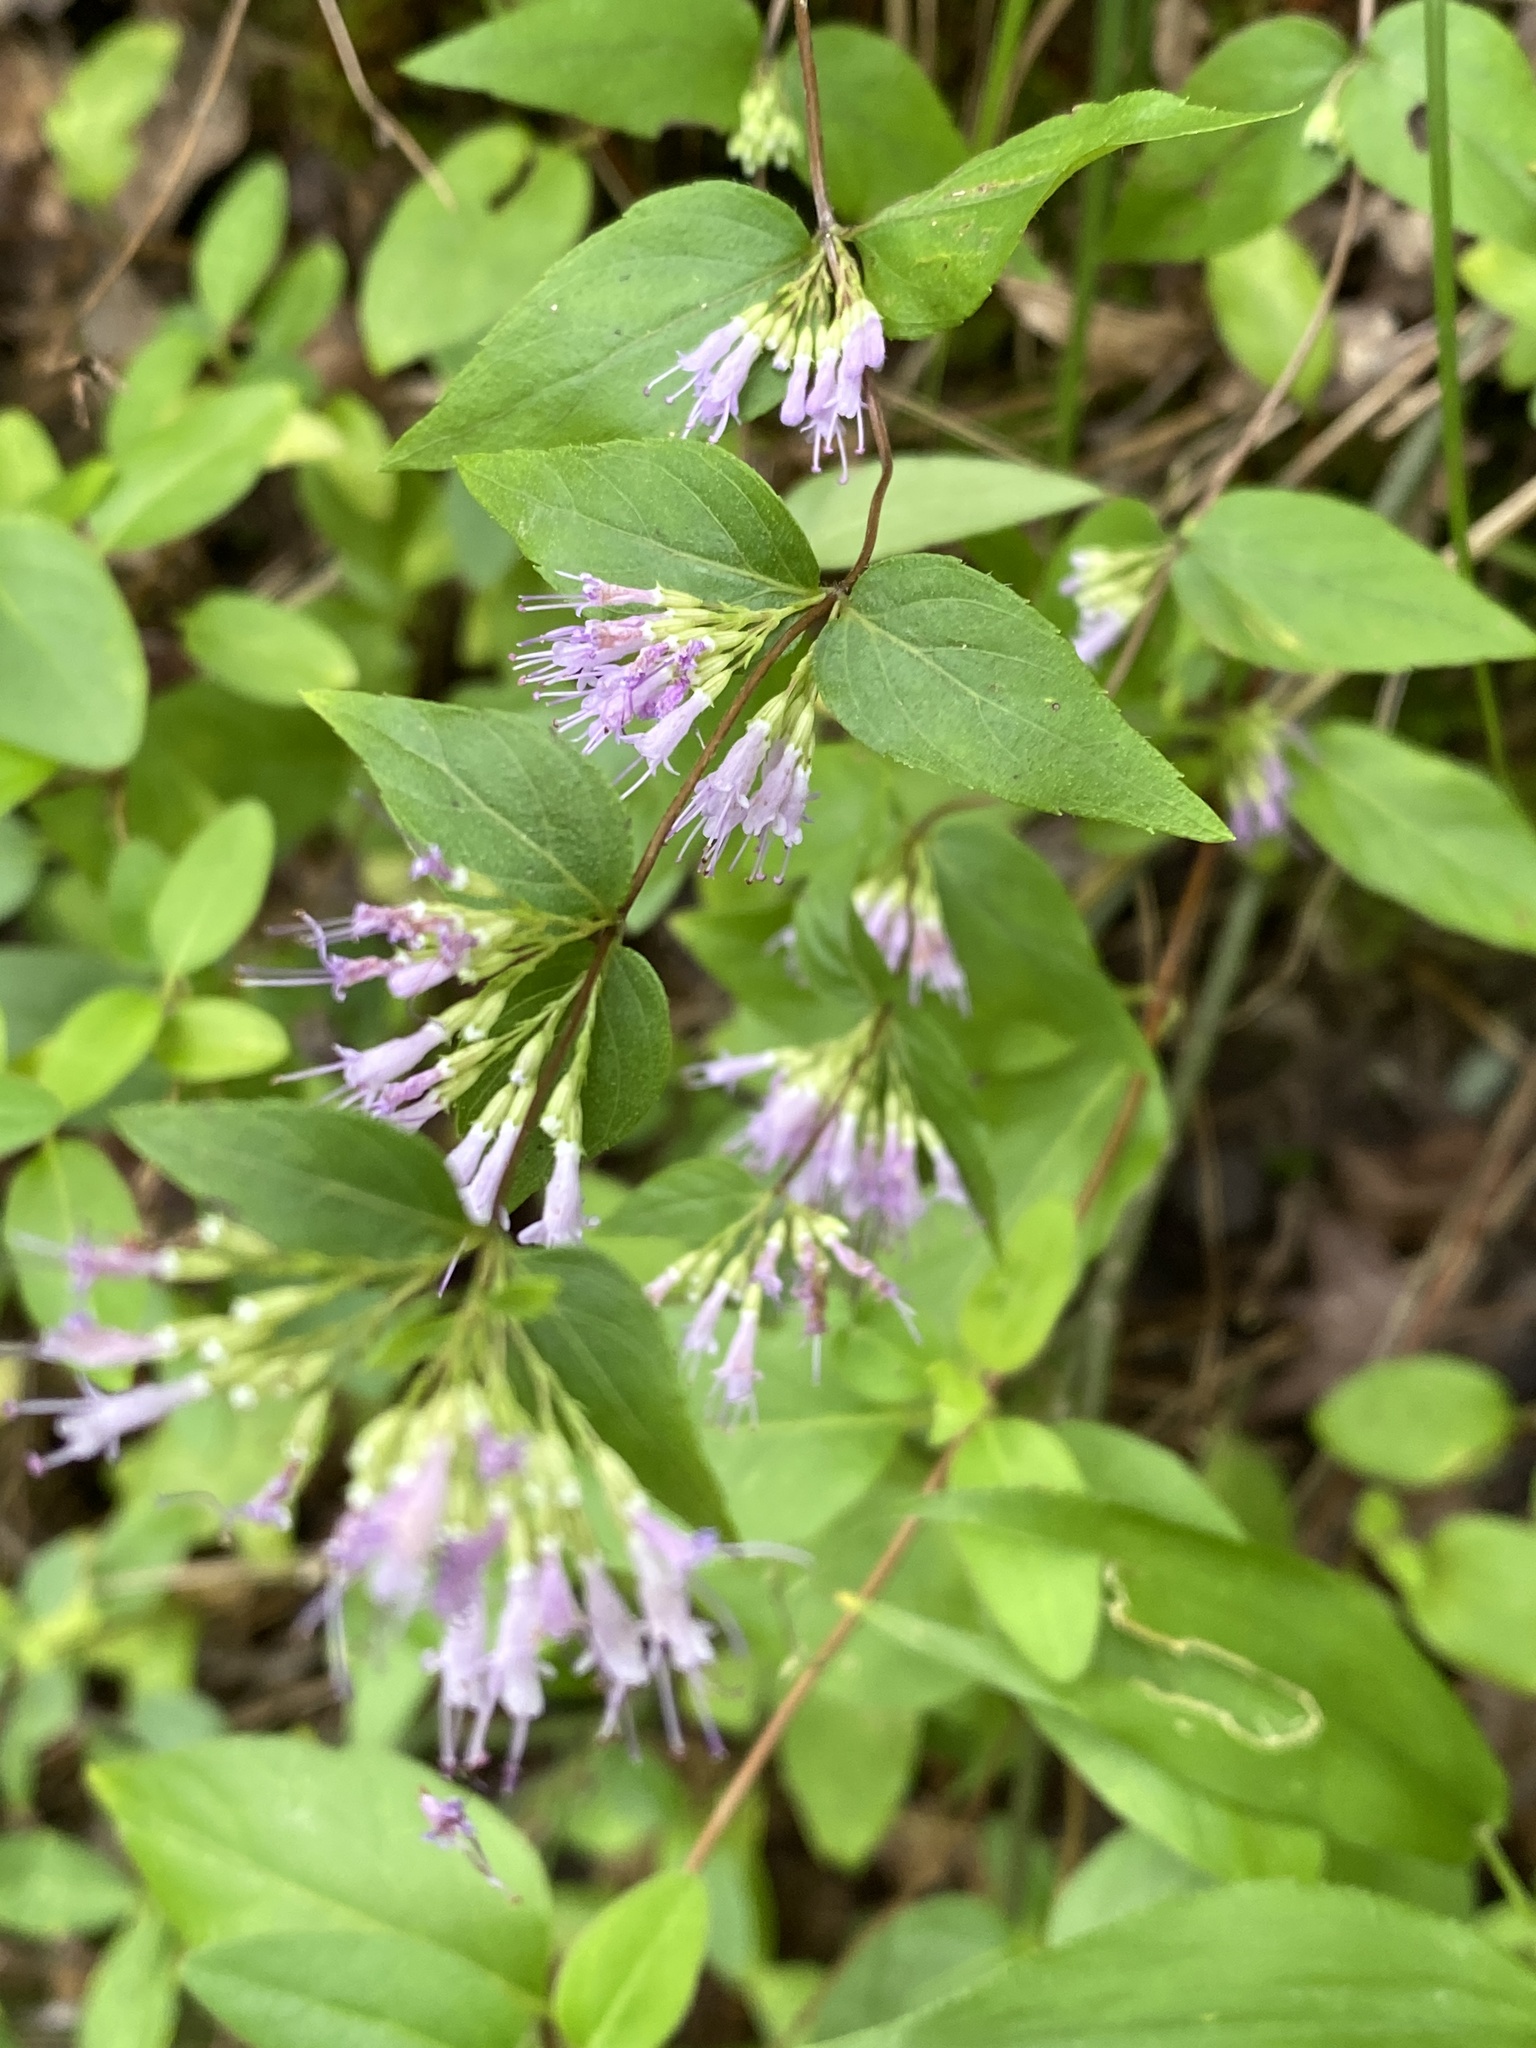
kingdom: Plantae
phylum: Tracheophyta
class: Magnoliopsida
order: Lamiales
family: Lamiaceae
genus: Cunila
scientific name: Cunila origanoides
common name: American dittany
